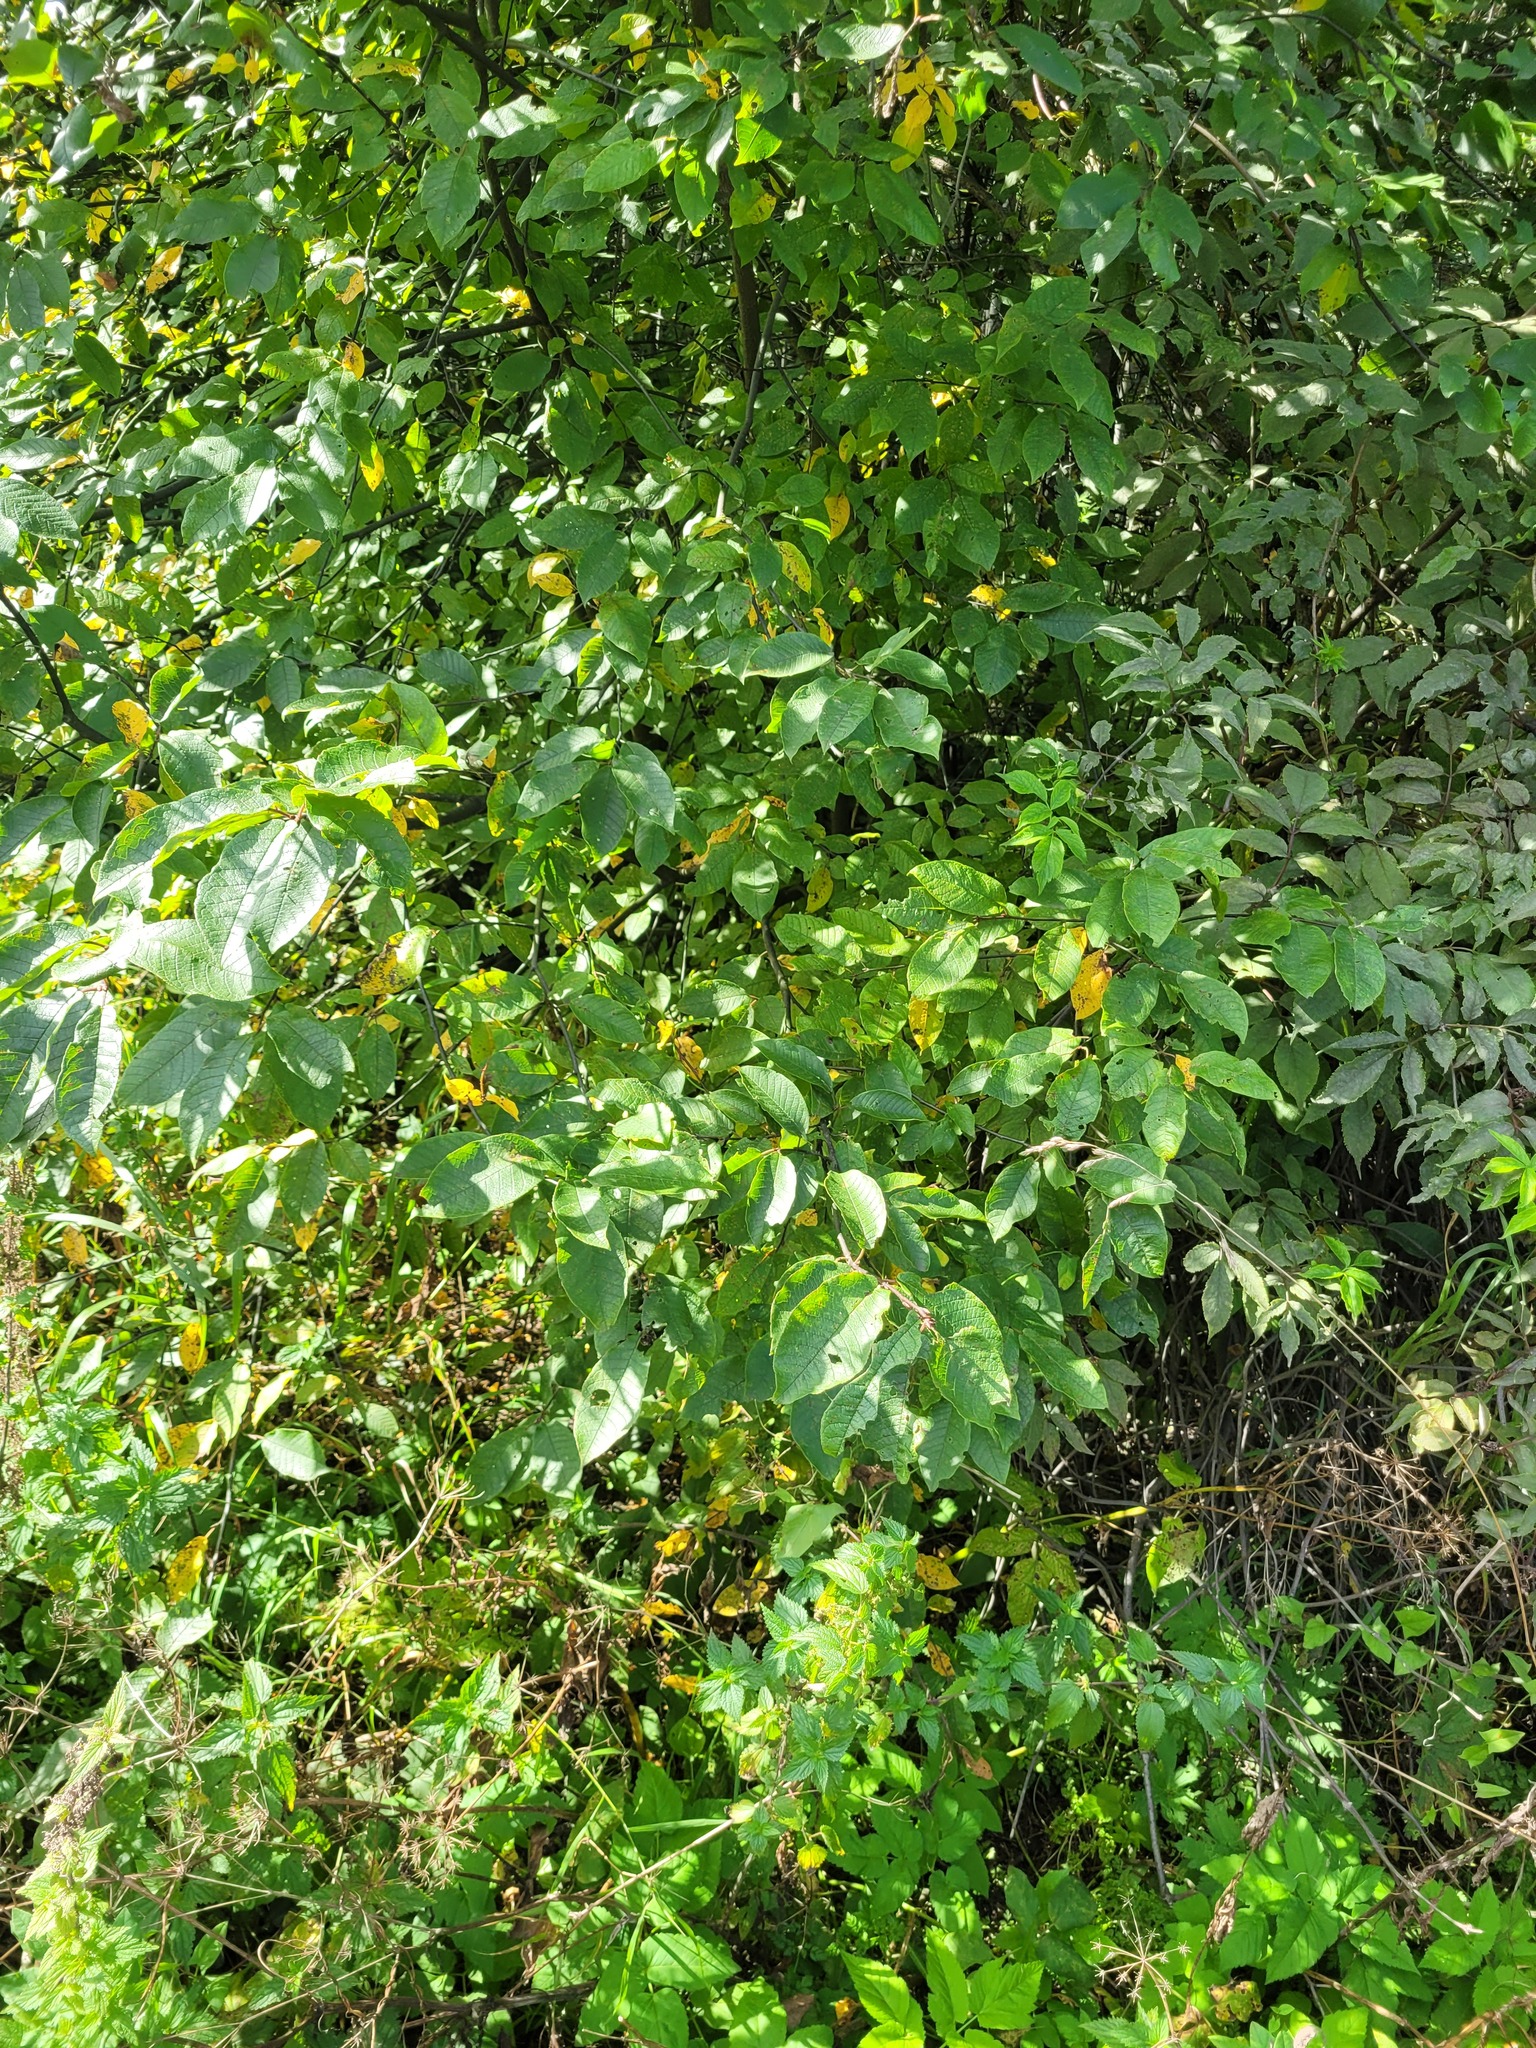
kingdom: Plantae
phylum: Tracheophyta
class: Magnoliopsida
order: Rosales
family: Rosaceae
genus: Prunus
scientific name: Prunus padus
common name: Bird cherry
